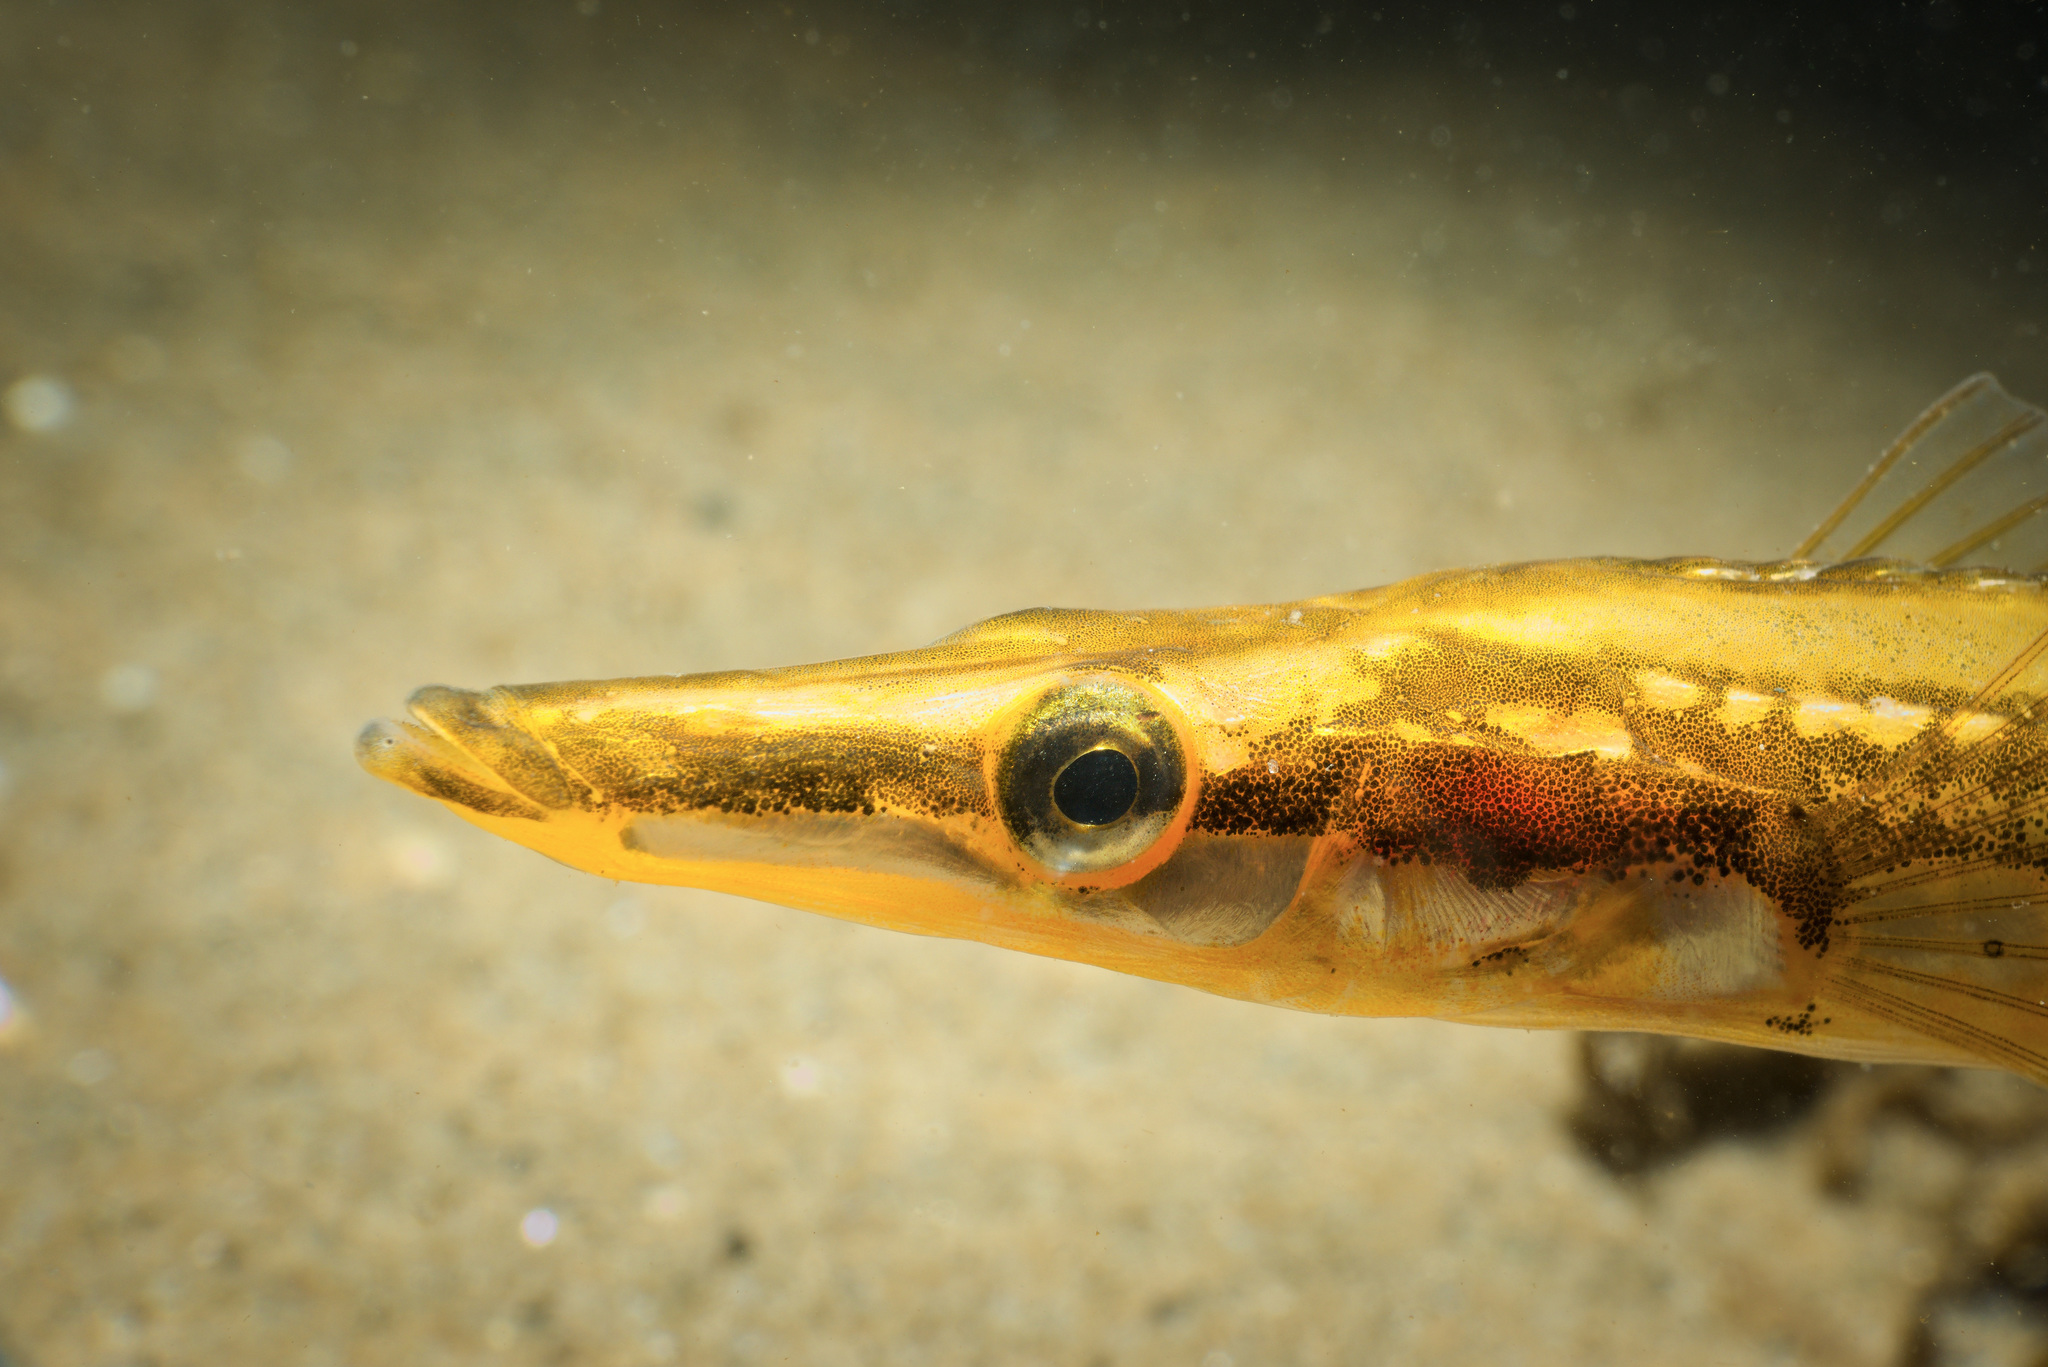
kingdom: Animalia
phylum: Chordata
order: Gasterosteiformes
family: Gasterosteidae
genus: Spinachia
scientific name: Spinachia spinachia
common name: Fifteen-spined stickleback
